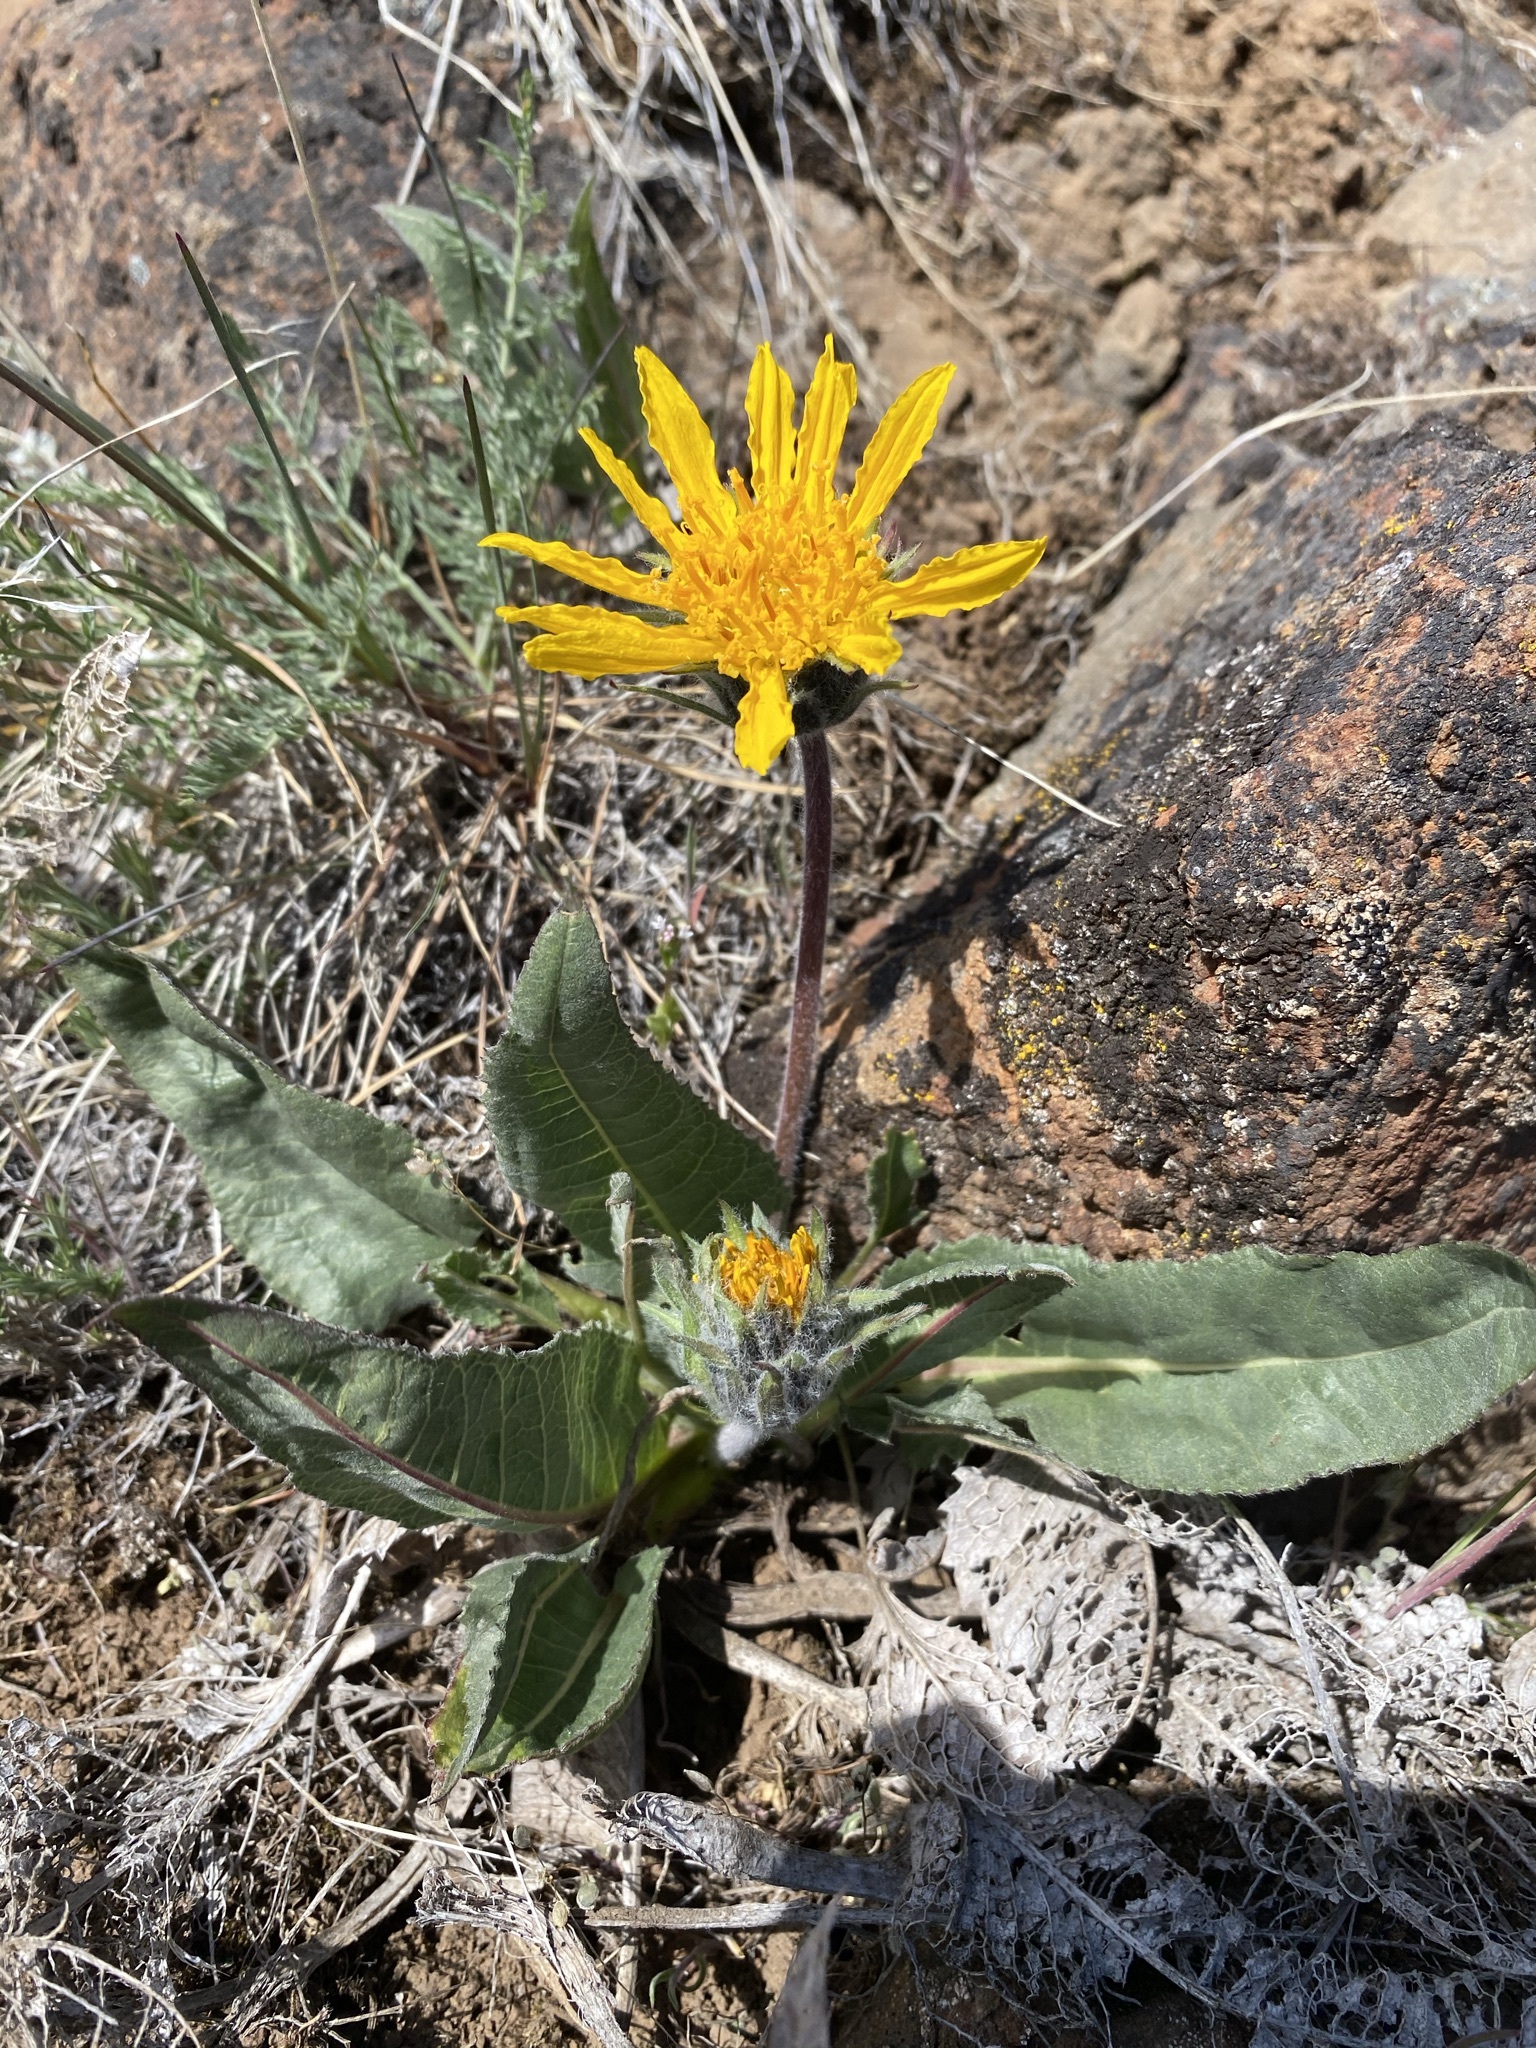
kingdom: Plantae
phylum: Tracheophyta
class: Magnoliopsida
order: Asterales
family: Asteraceae
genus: Balsamorhiza
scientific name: Balsamorhiza serrata
